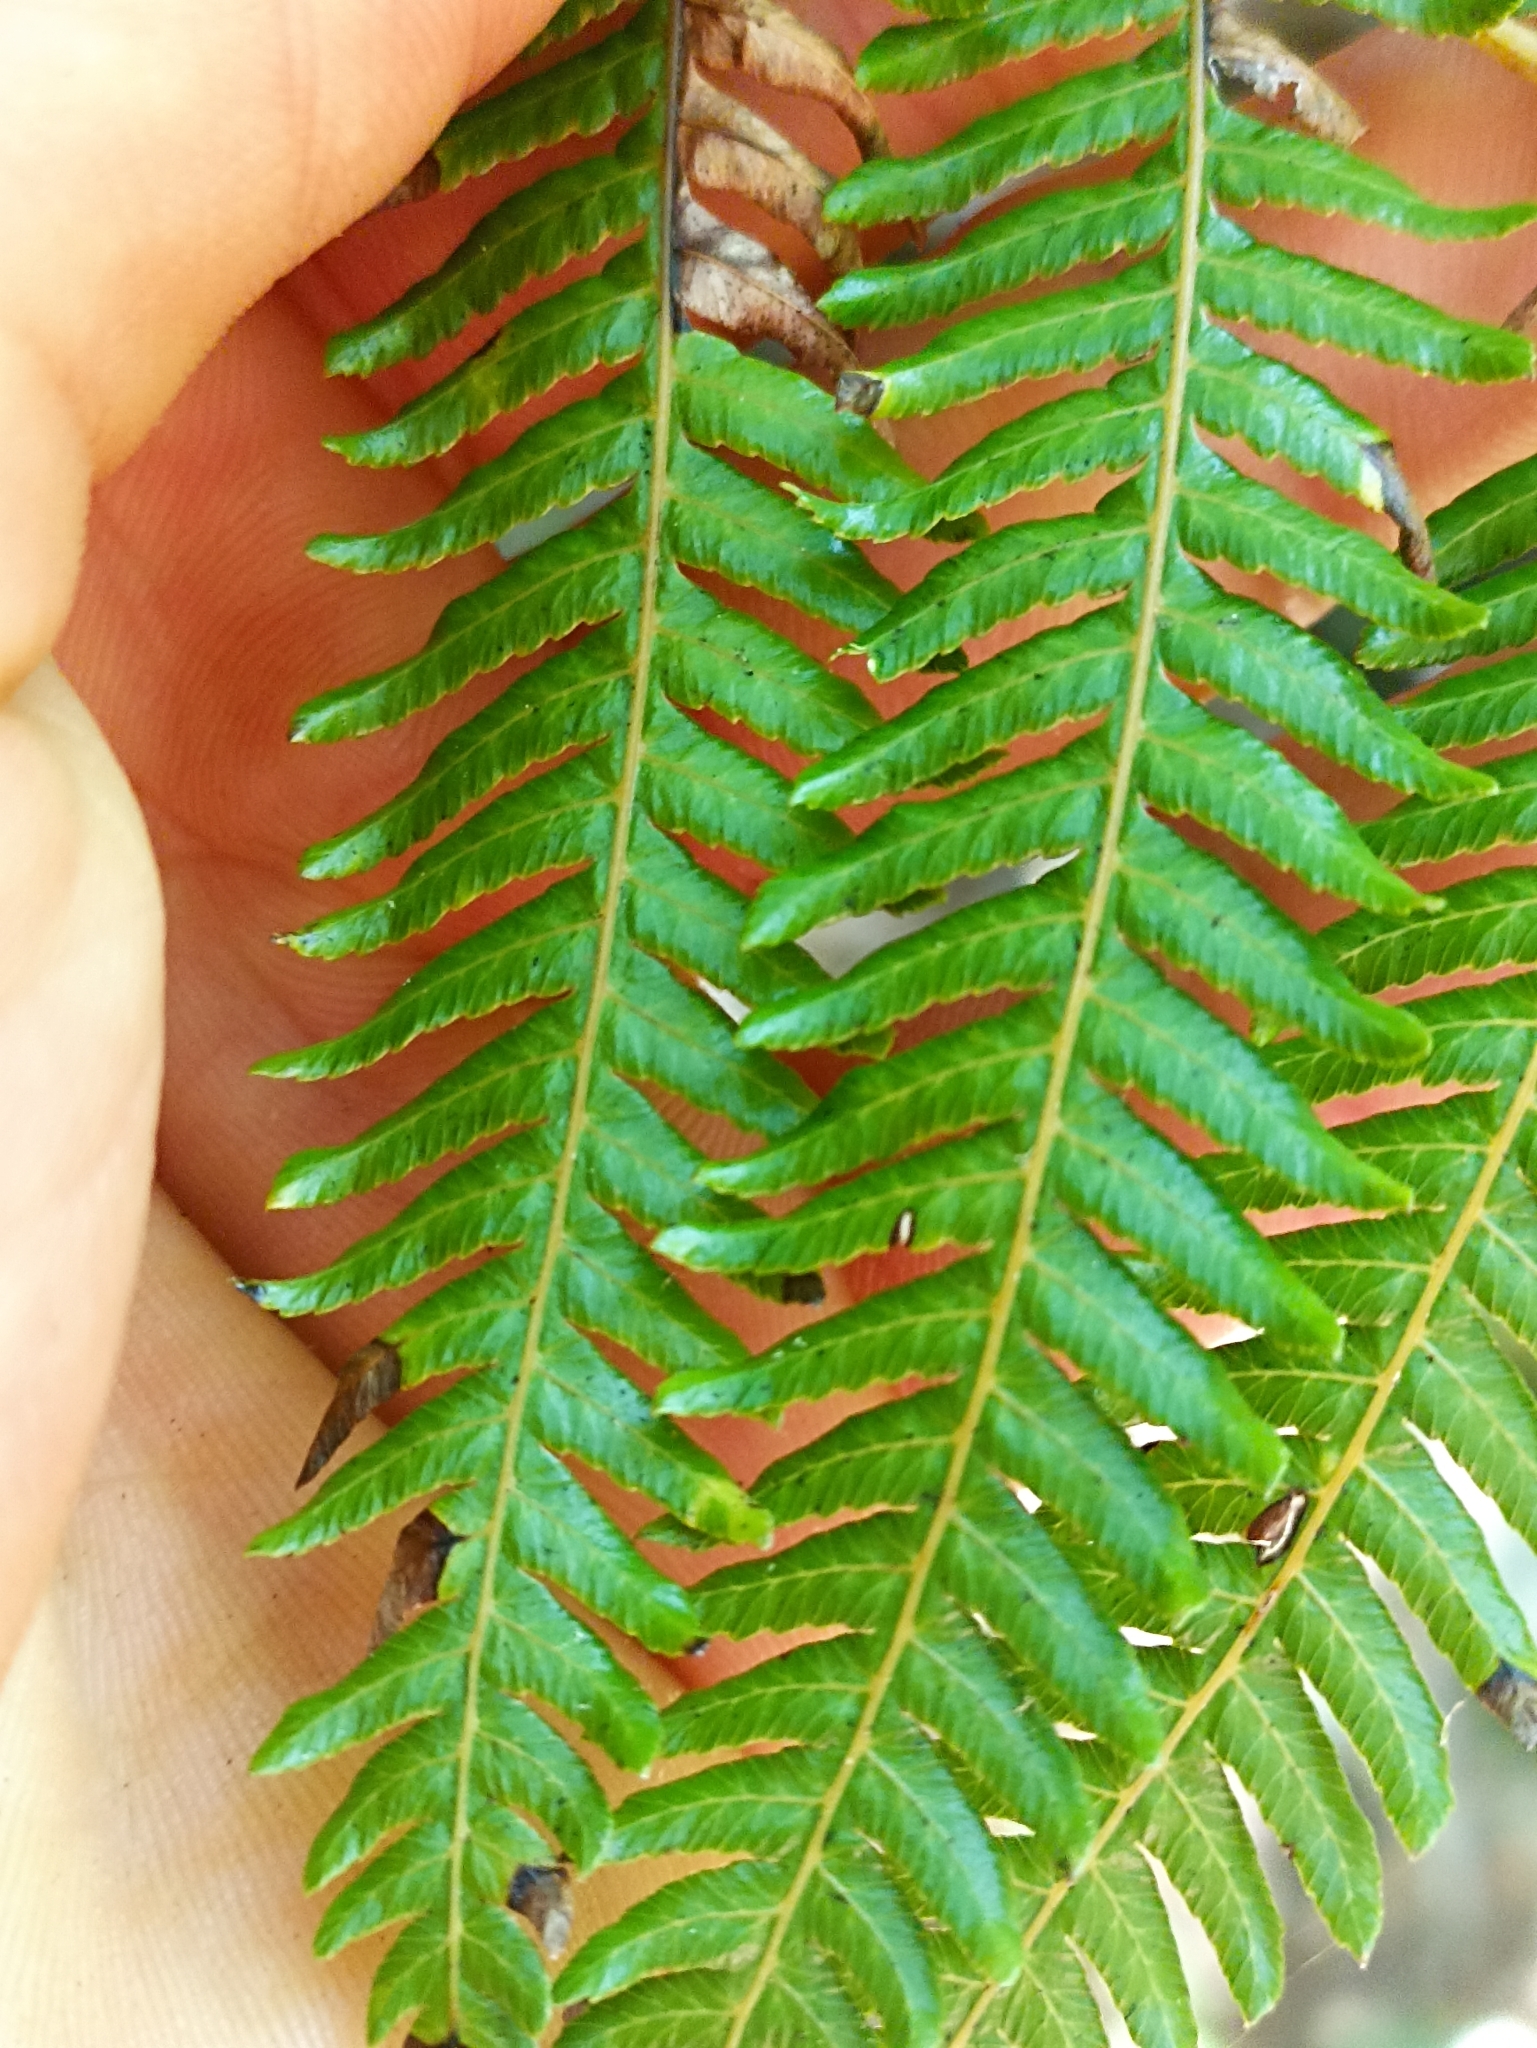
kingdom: Plantae
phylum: Tracheophyta
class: Polypodiopsida
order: Cyatheales
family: Cyatheaceae
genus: Alsophila
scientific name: Alsophila dealbata
